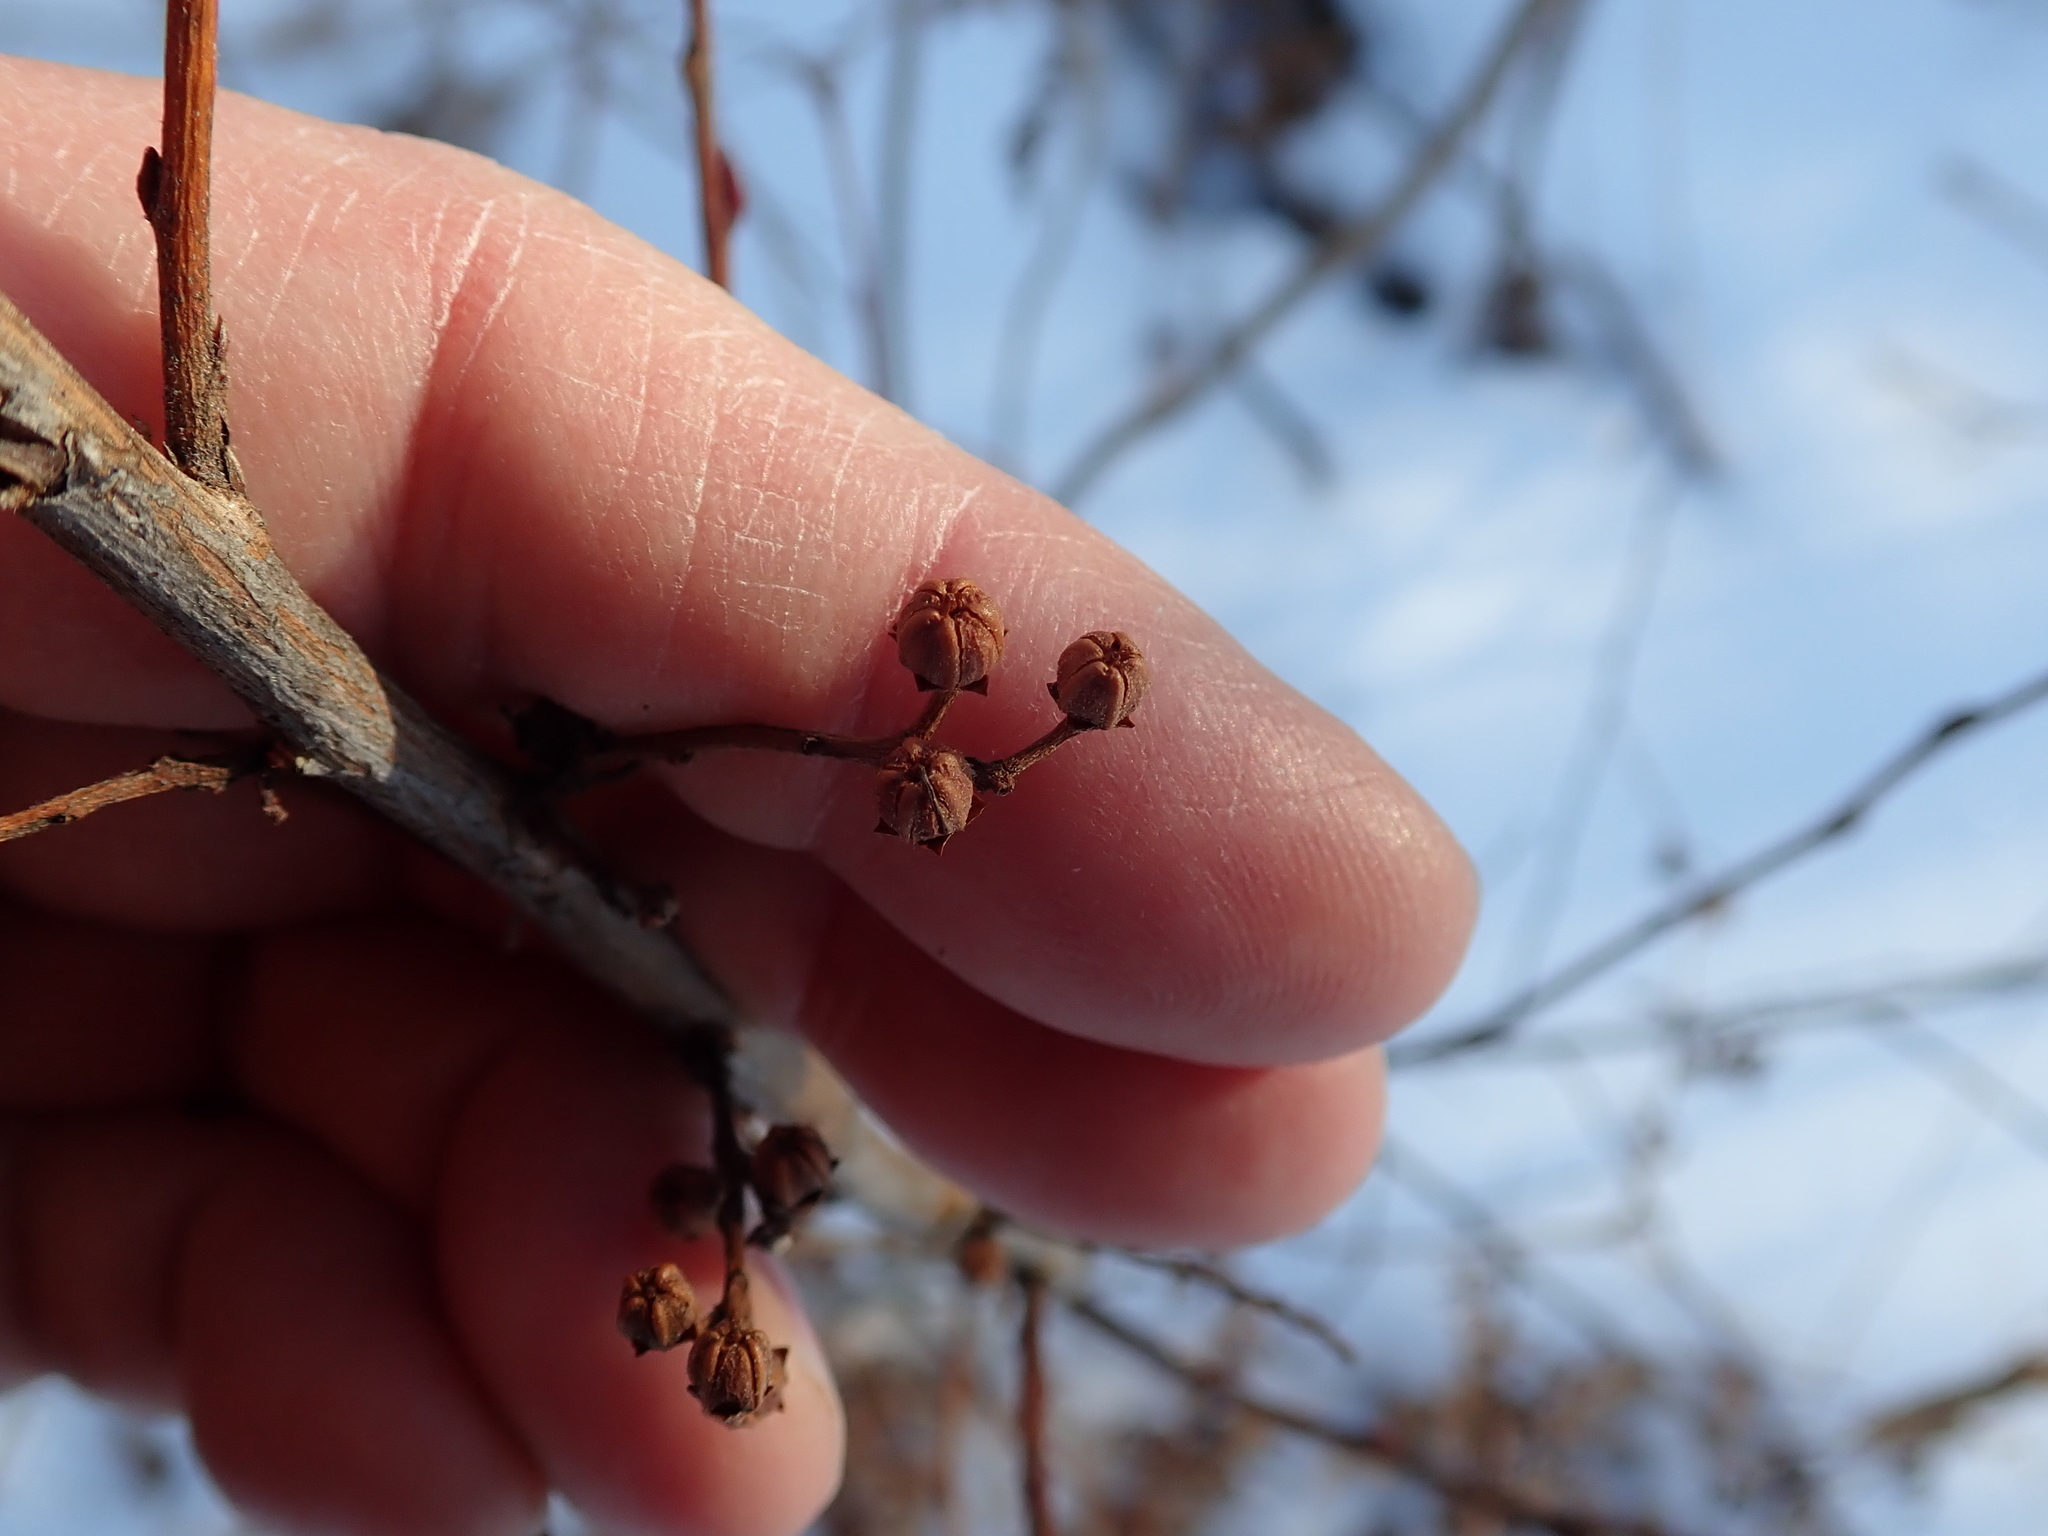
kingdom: Plantae
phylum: Tracheophyta
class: Magnoliopsida
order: Ericales
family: Ericaceae
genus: Lyonia
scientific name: Lyonia ligustrina
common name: Maleberry
